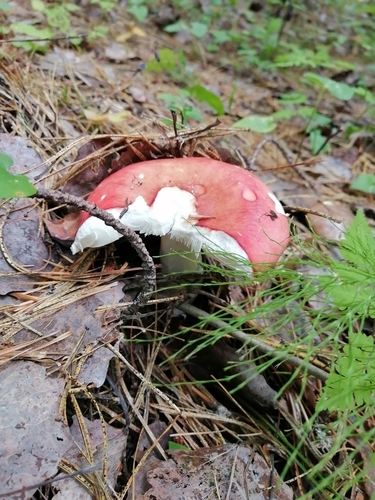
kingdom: Fungi
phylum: Basidiomycota
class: Agaricomycetes
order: Russulales
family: Russulaceae
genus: Russula
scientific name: Russula
